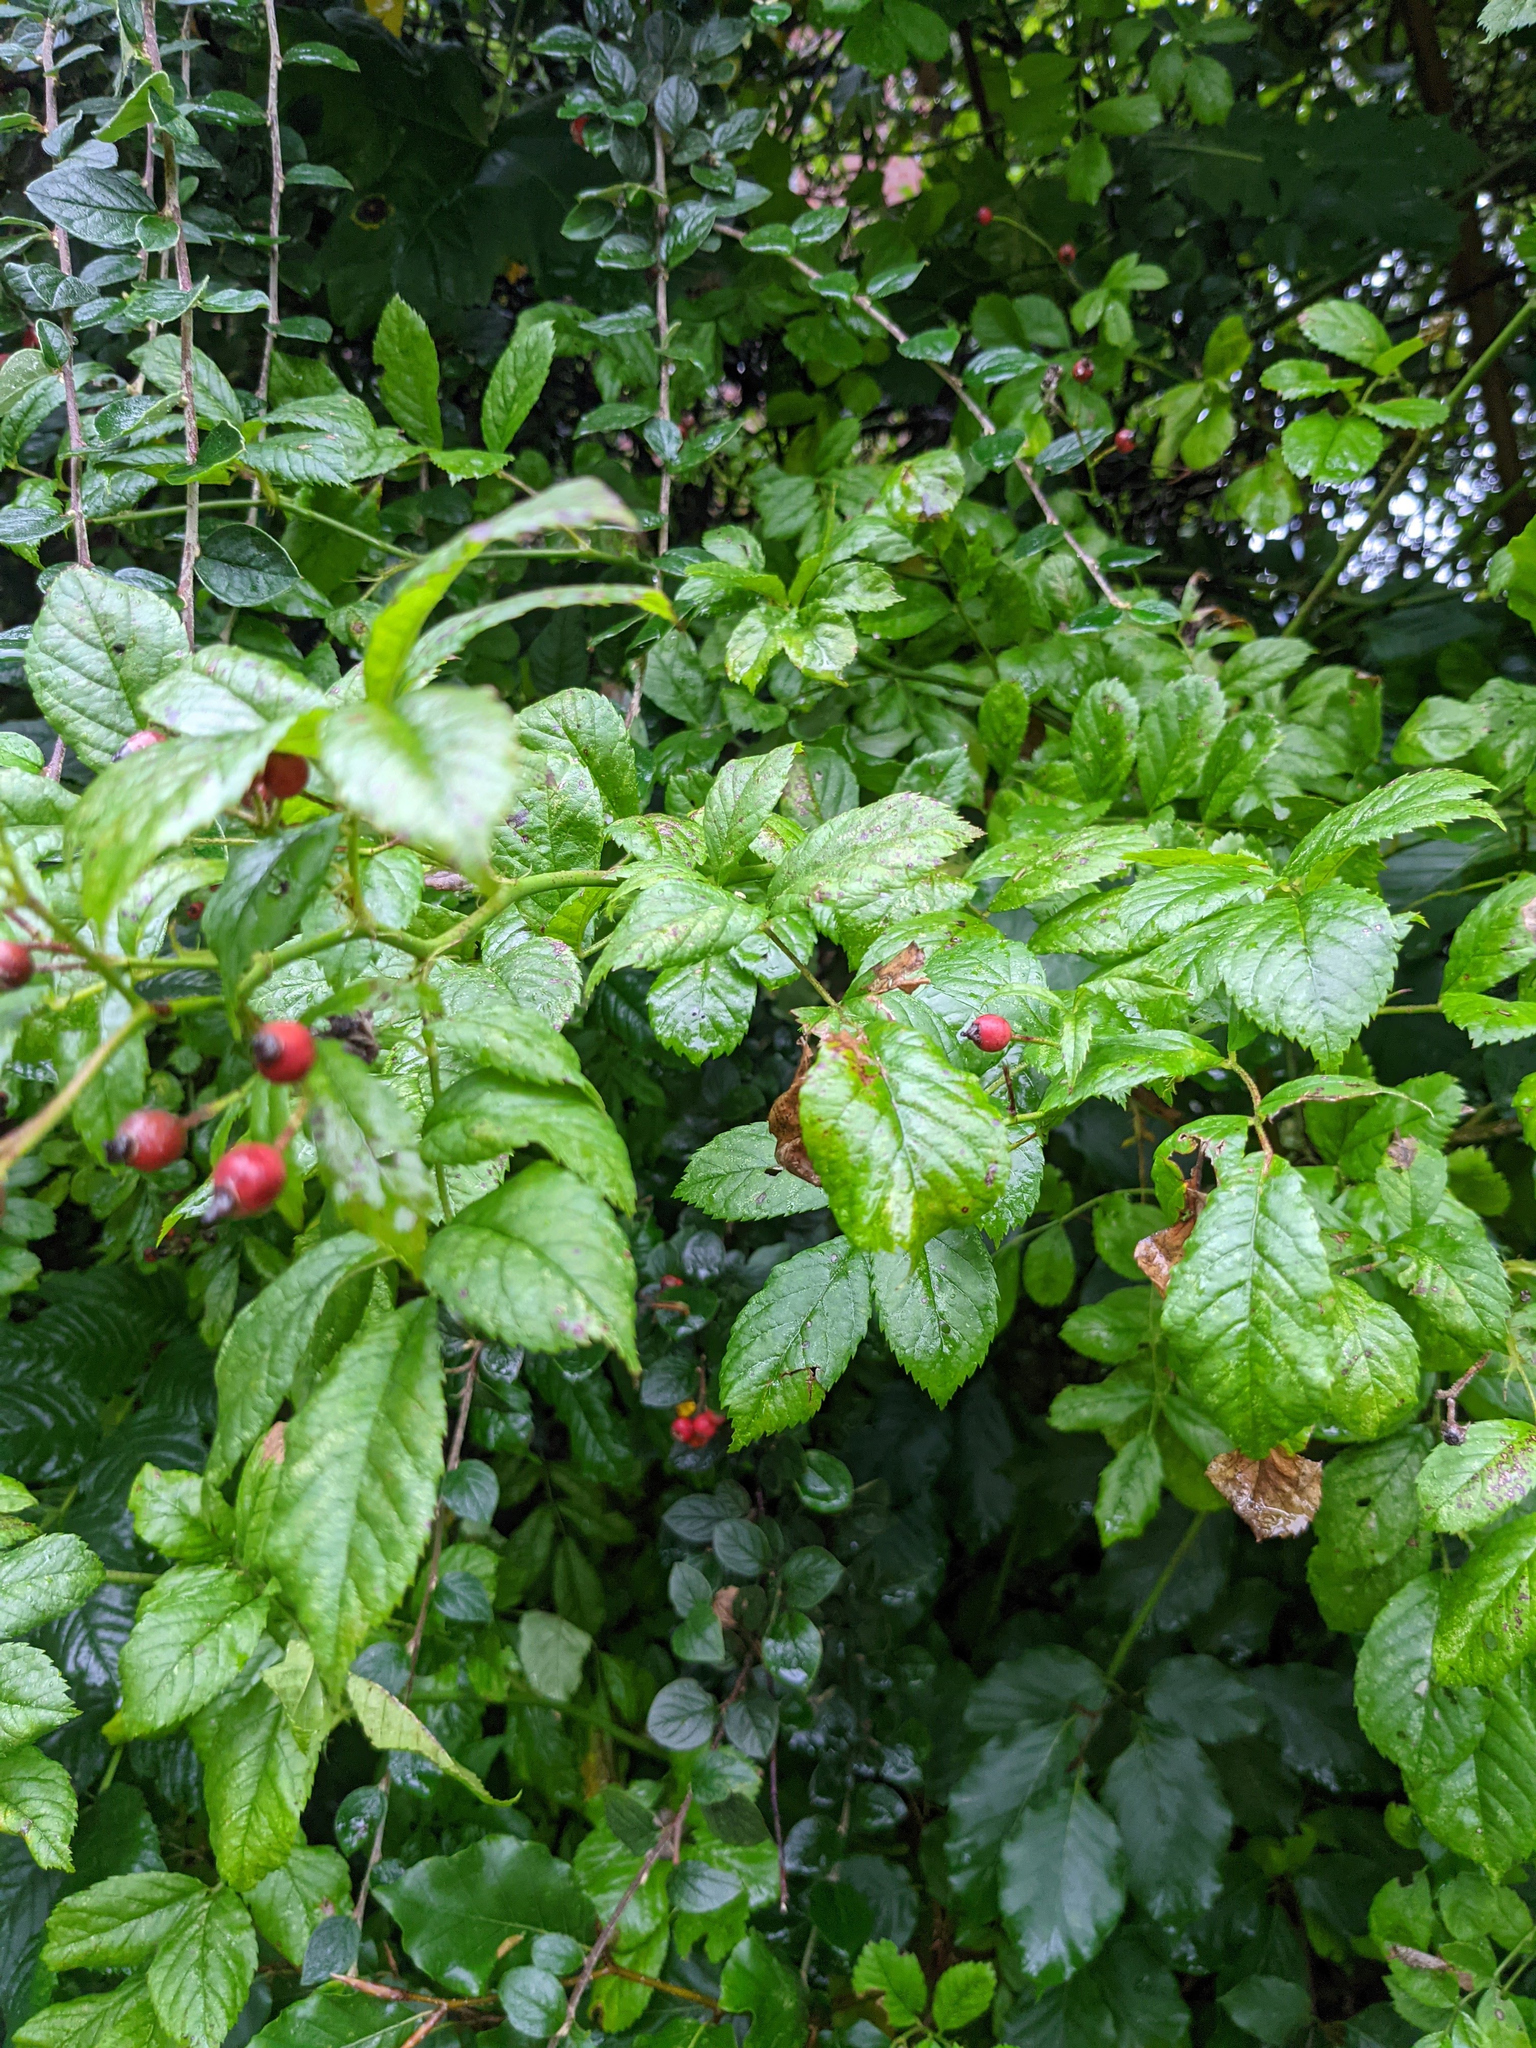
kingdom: Plantae
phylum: Tracheophyta
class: Magnoliopsida
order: Rosales
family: Rosaceae
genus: Rosa
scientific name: Rosa multiflora
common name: Multiflora rose
